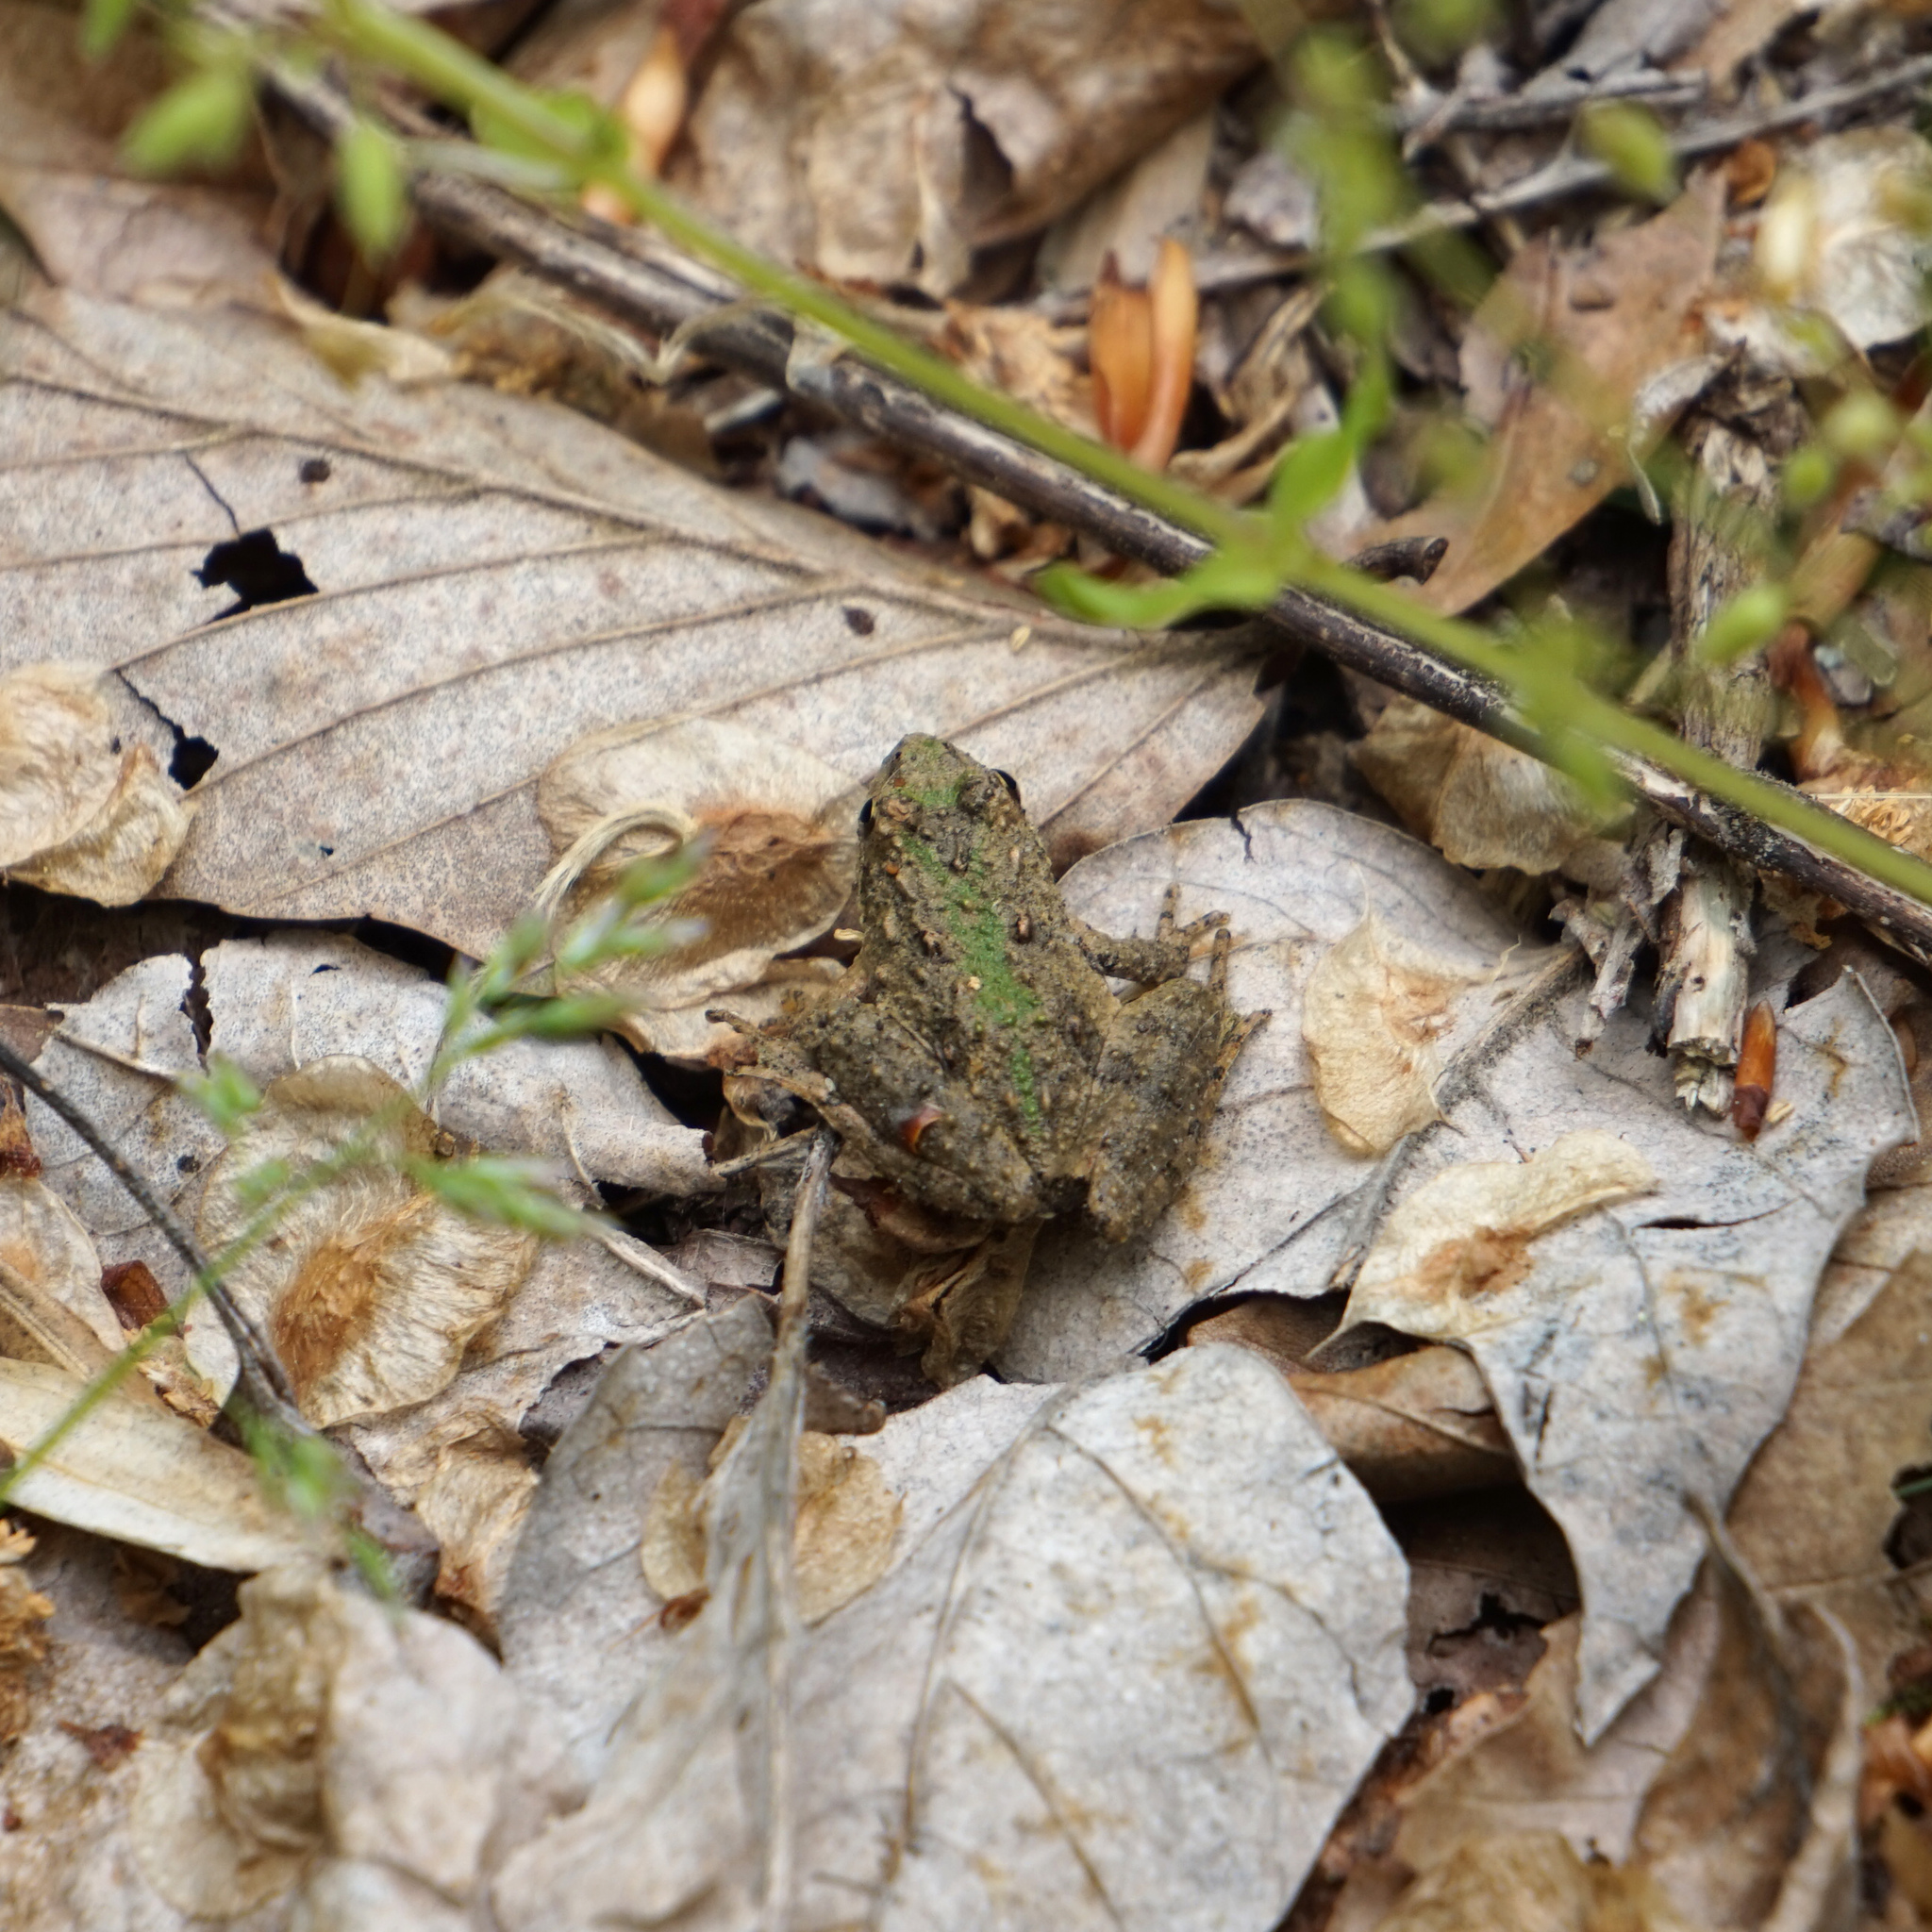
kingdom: Animalia
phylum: Chordata
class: Amphibia
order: Anura
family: Hylidae
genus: Acris
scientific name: Acris crepitans
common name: Northern cricket frog
